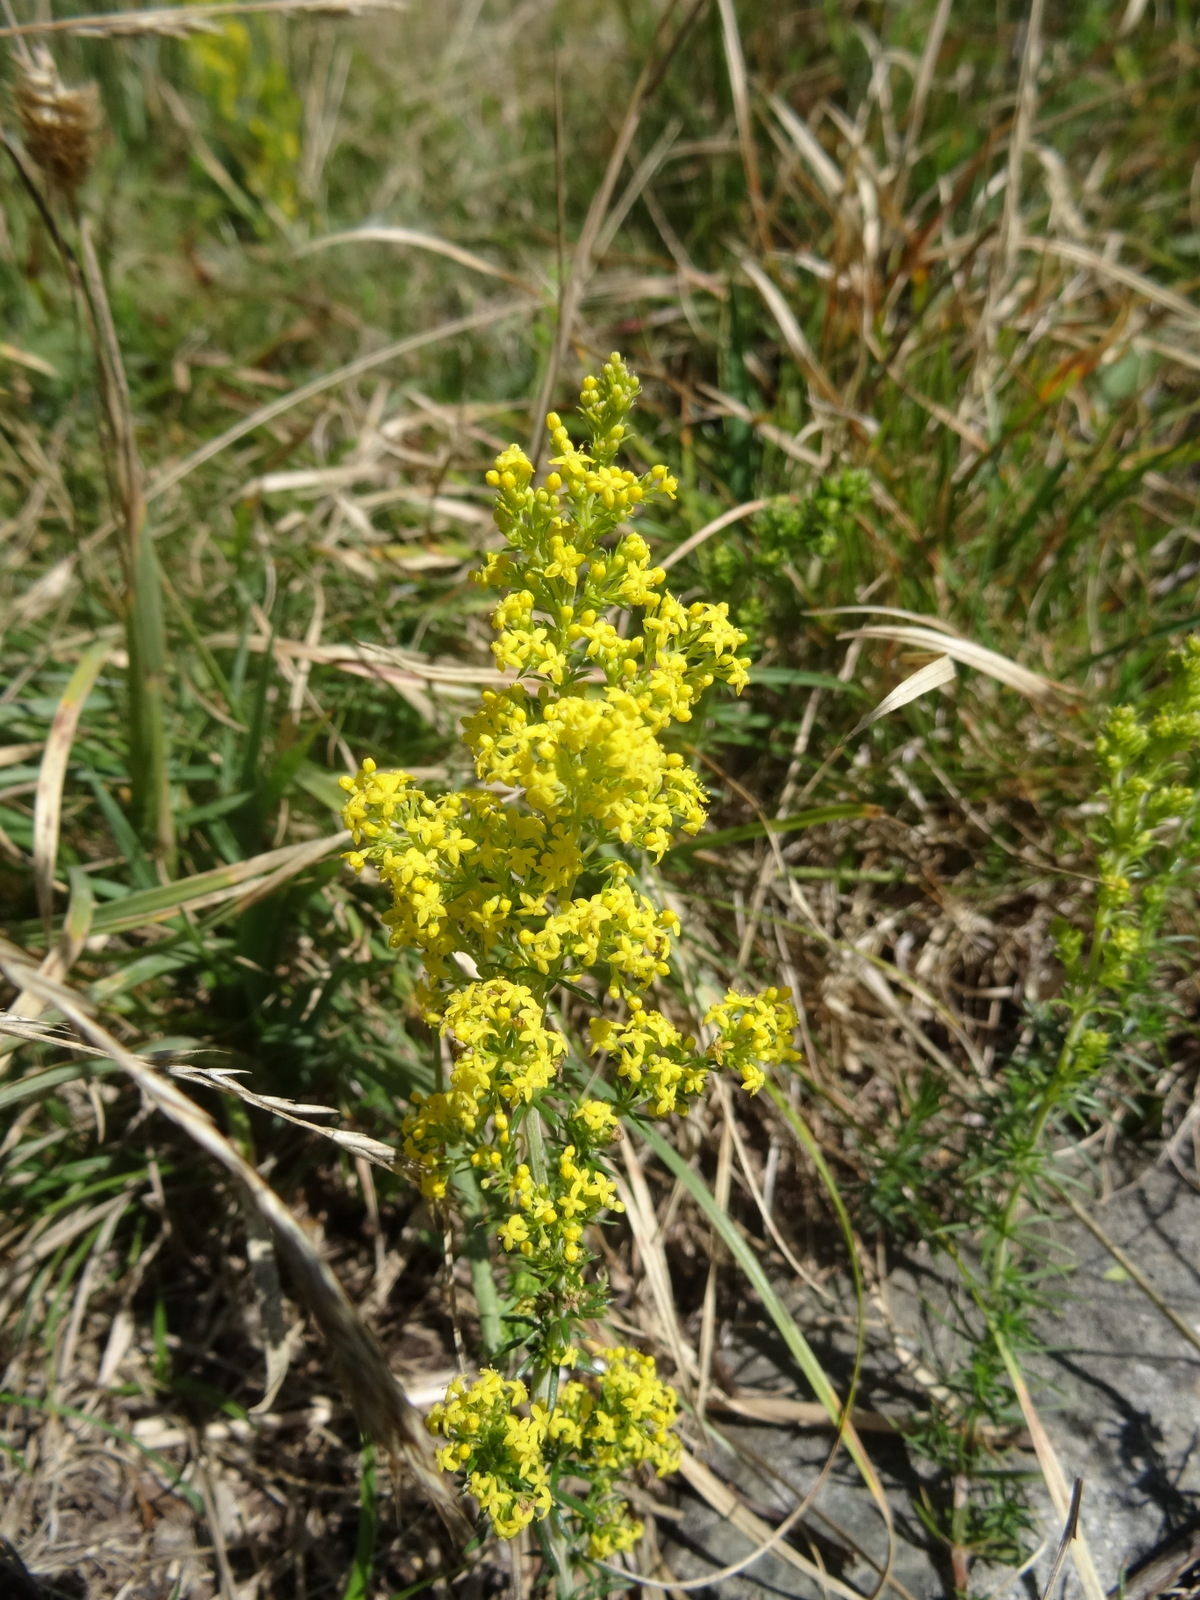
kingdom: Plantae
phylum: Tracheophyta
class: Magnoliopsida
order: Gentianales
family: Rubiaceae
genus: Galium
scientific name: Galium verum
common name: Lady's bedstraw
